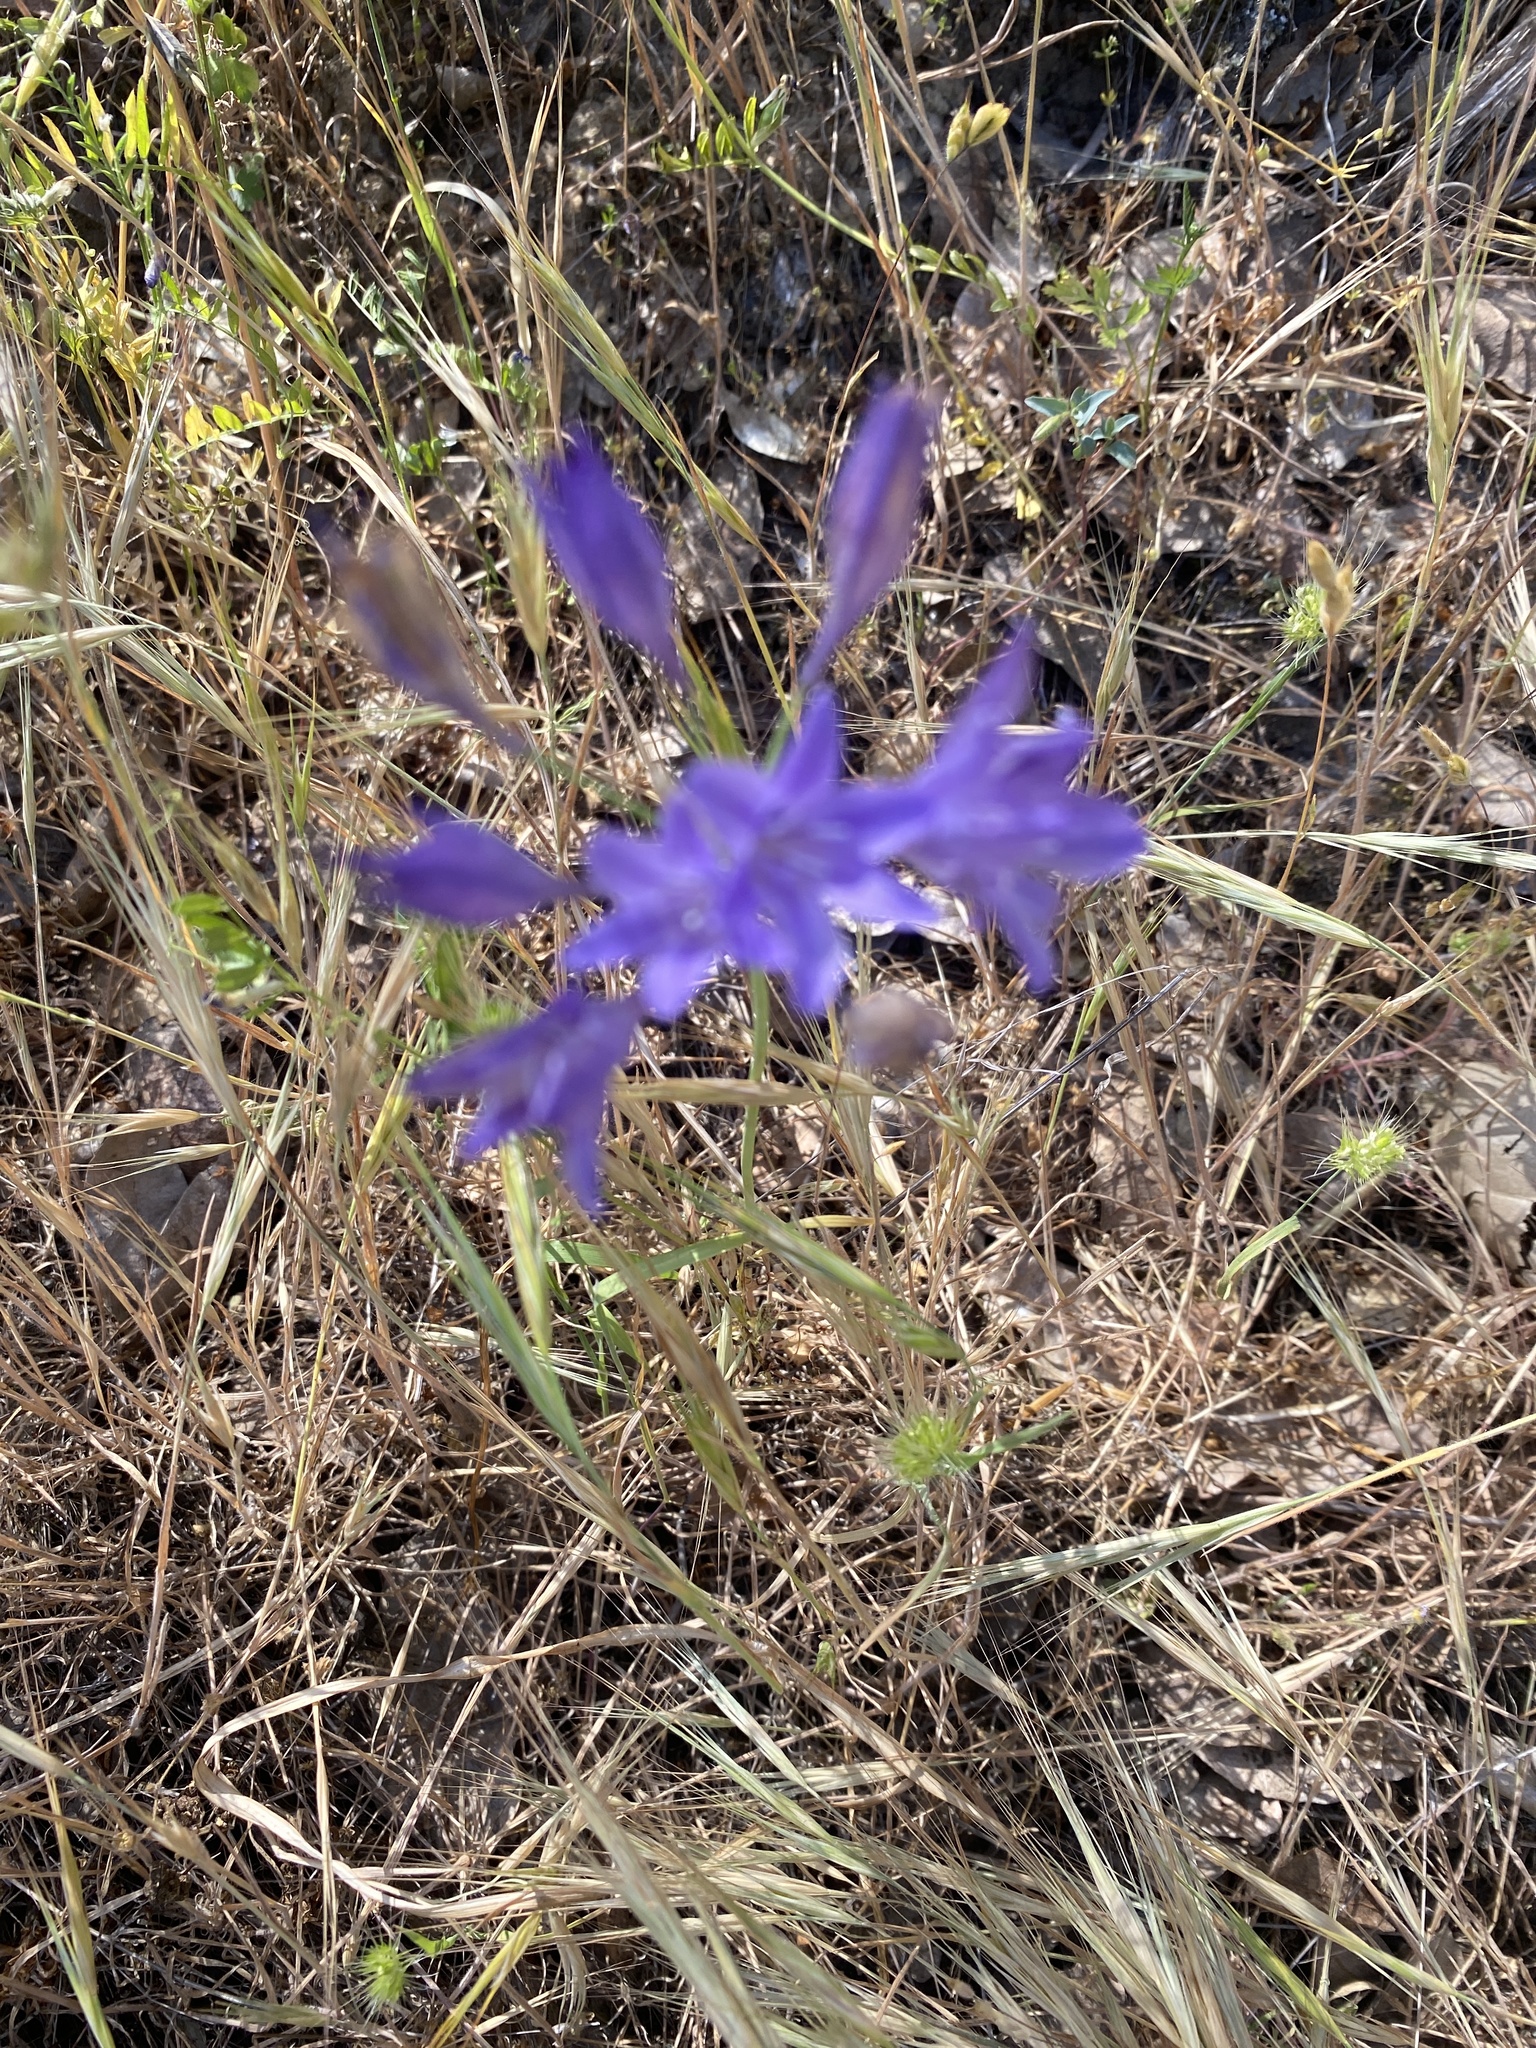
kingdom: Plantae
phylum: Tracheophyta
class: Liliopsida
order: Asparagales
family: Asparagaceae
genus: Triteleia
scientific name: Triteleia laxa
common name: Triplet-lily
